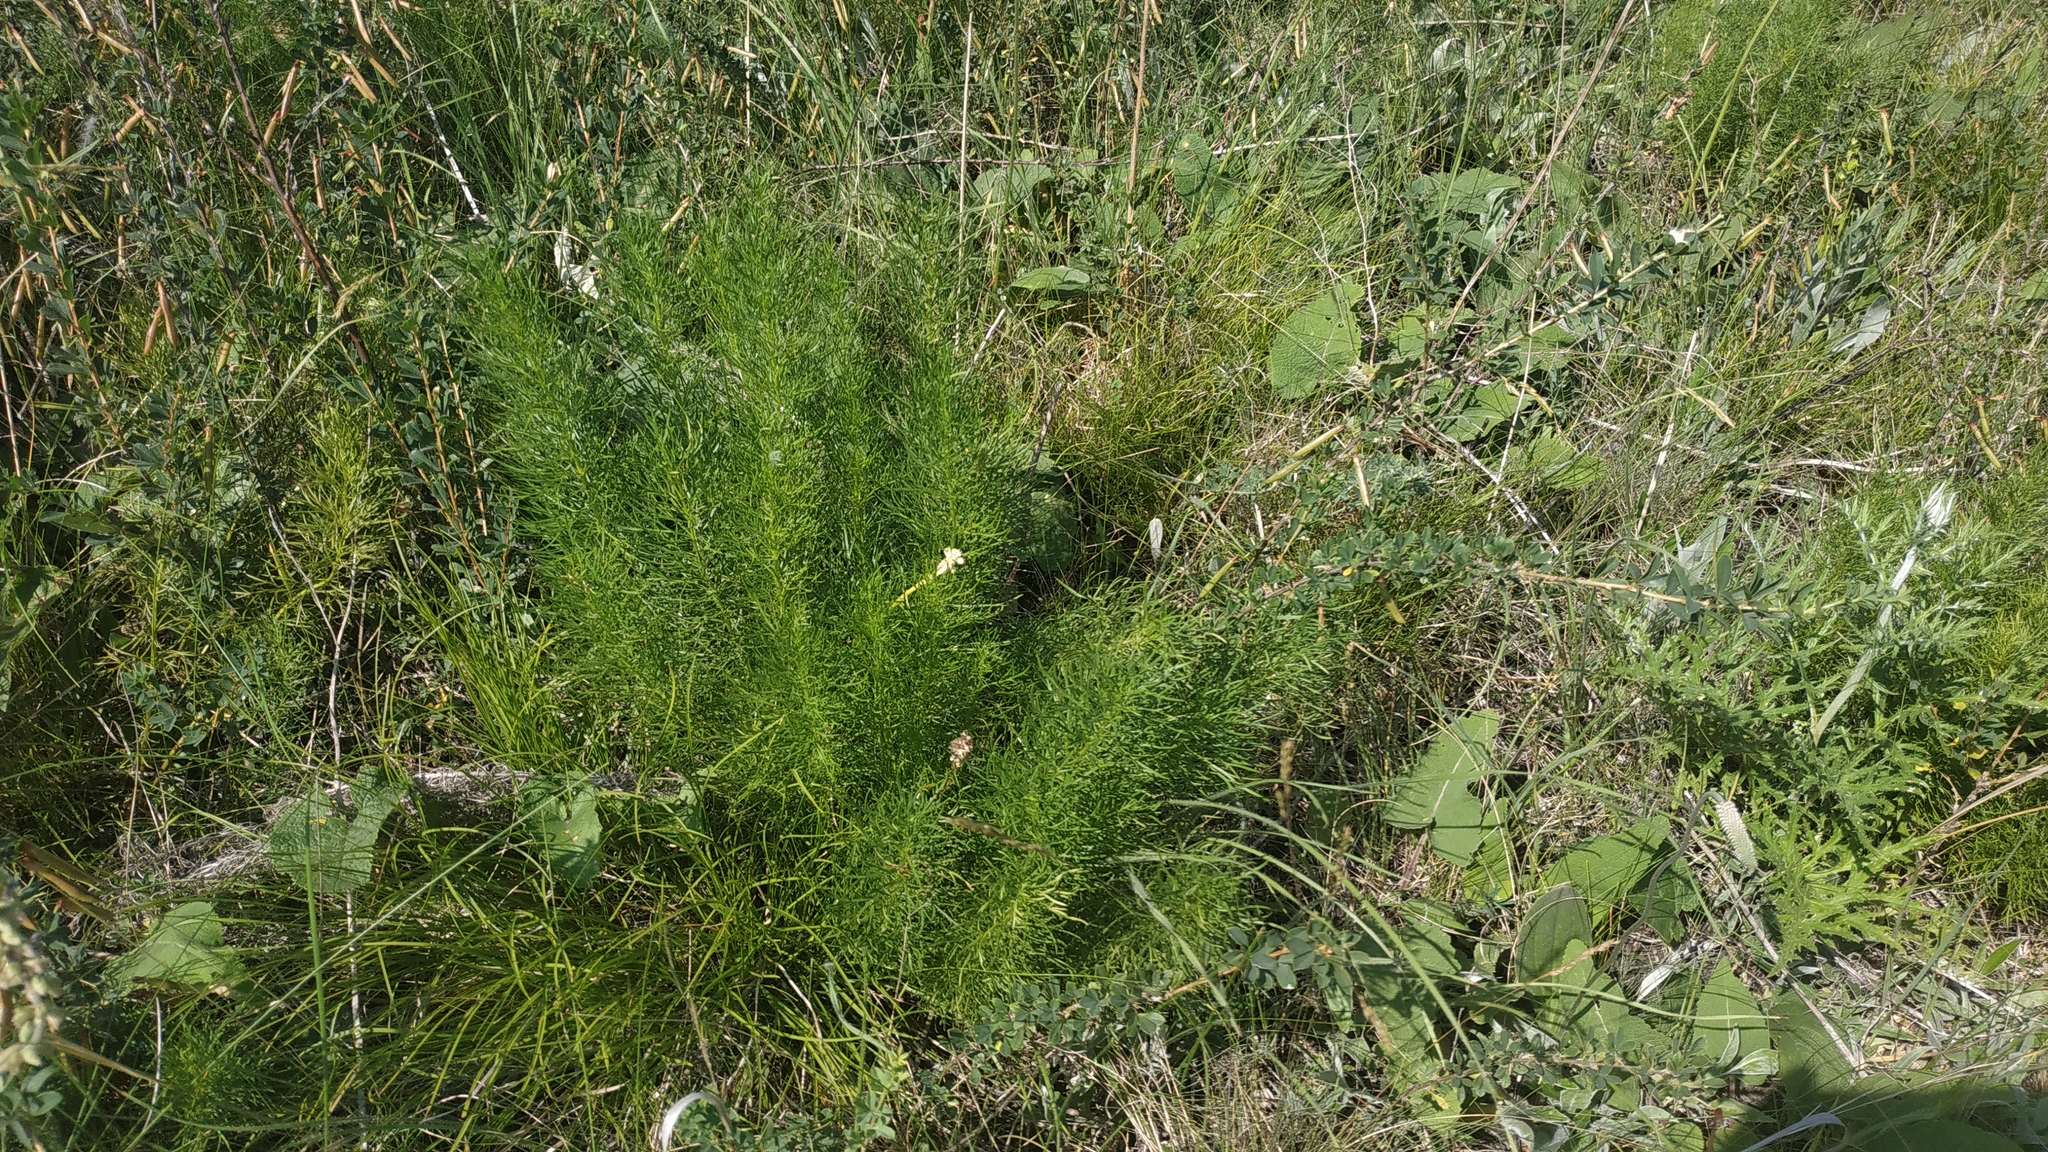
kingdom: Plantae
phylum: Tracheophyta
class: Magnoliopsida
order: Ranunculales
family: Ranunculaceae
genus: Adonis
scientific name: Adonis vernalis
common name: Yellow pheasants-eye
